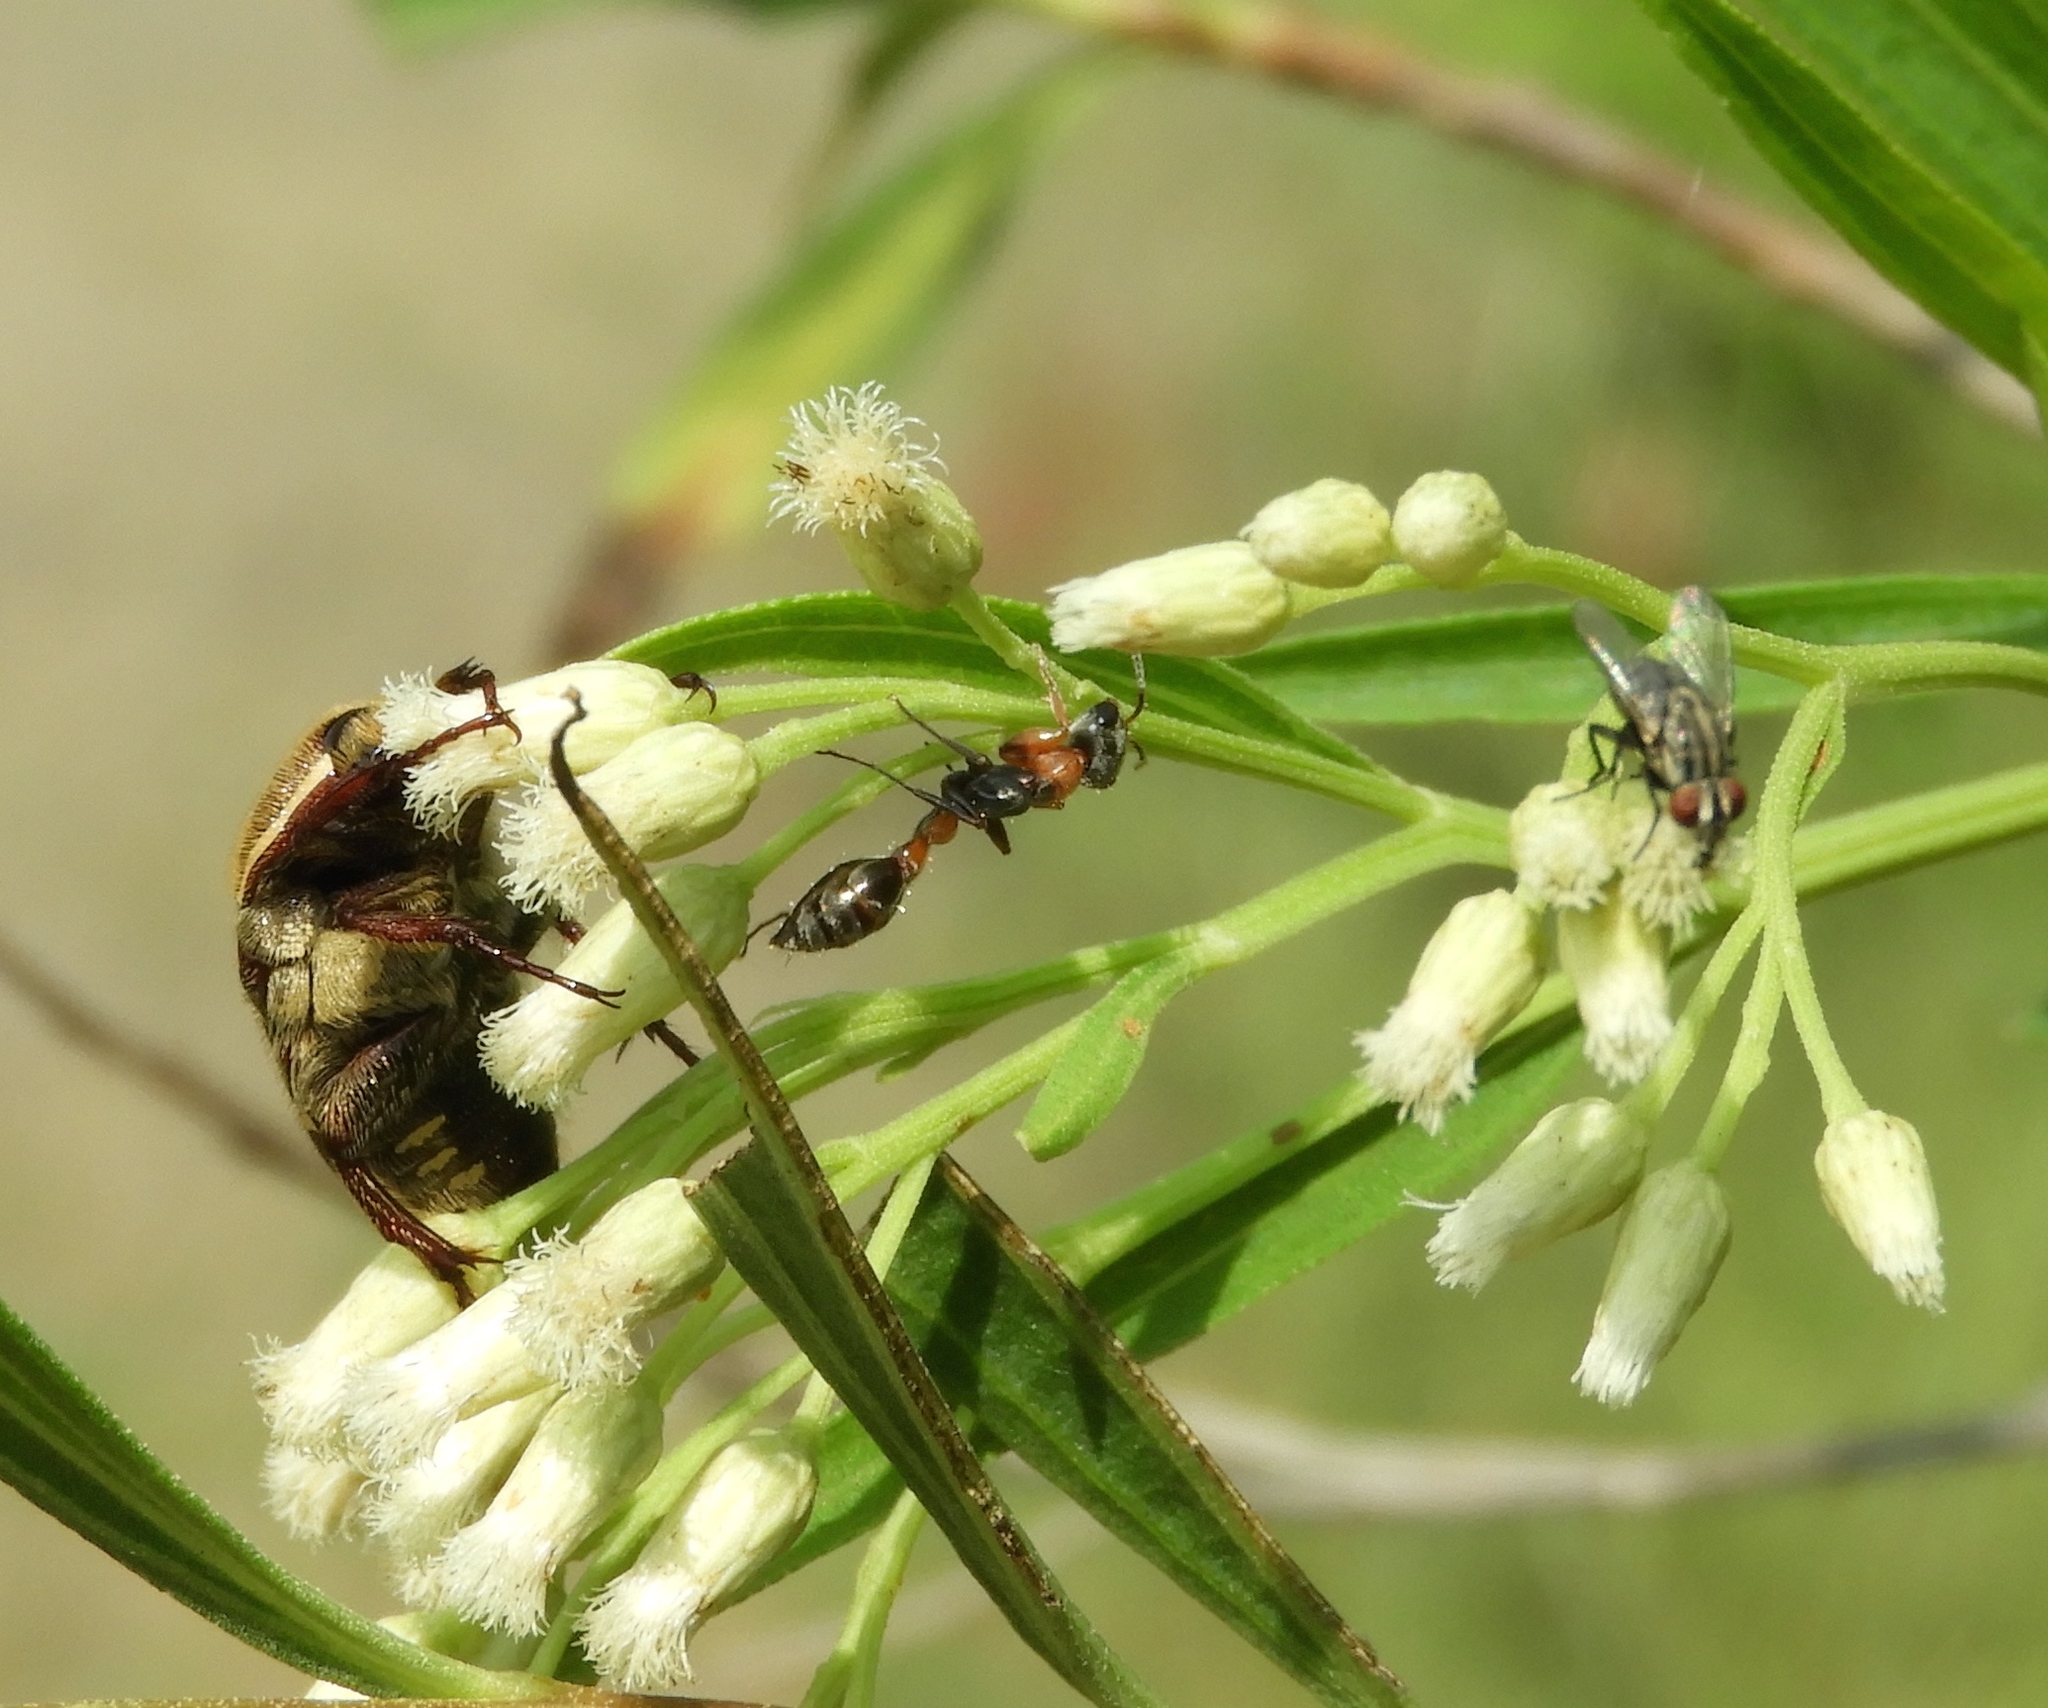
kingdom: Animalia
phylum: Arthropoda
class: Insecta
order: Hymenoptera
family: Formicidae
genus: Pseudomyrmex
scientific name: Pseudomyrmex gracilis
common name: Graceful twig ant
